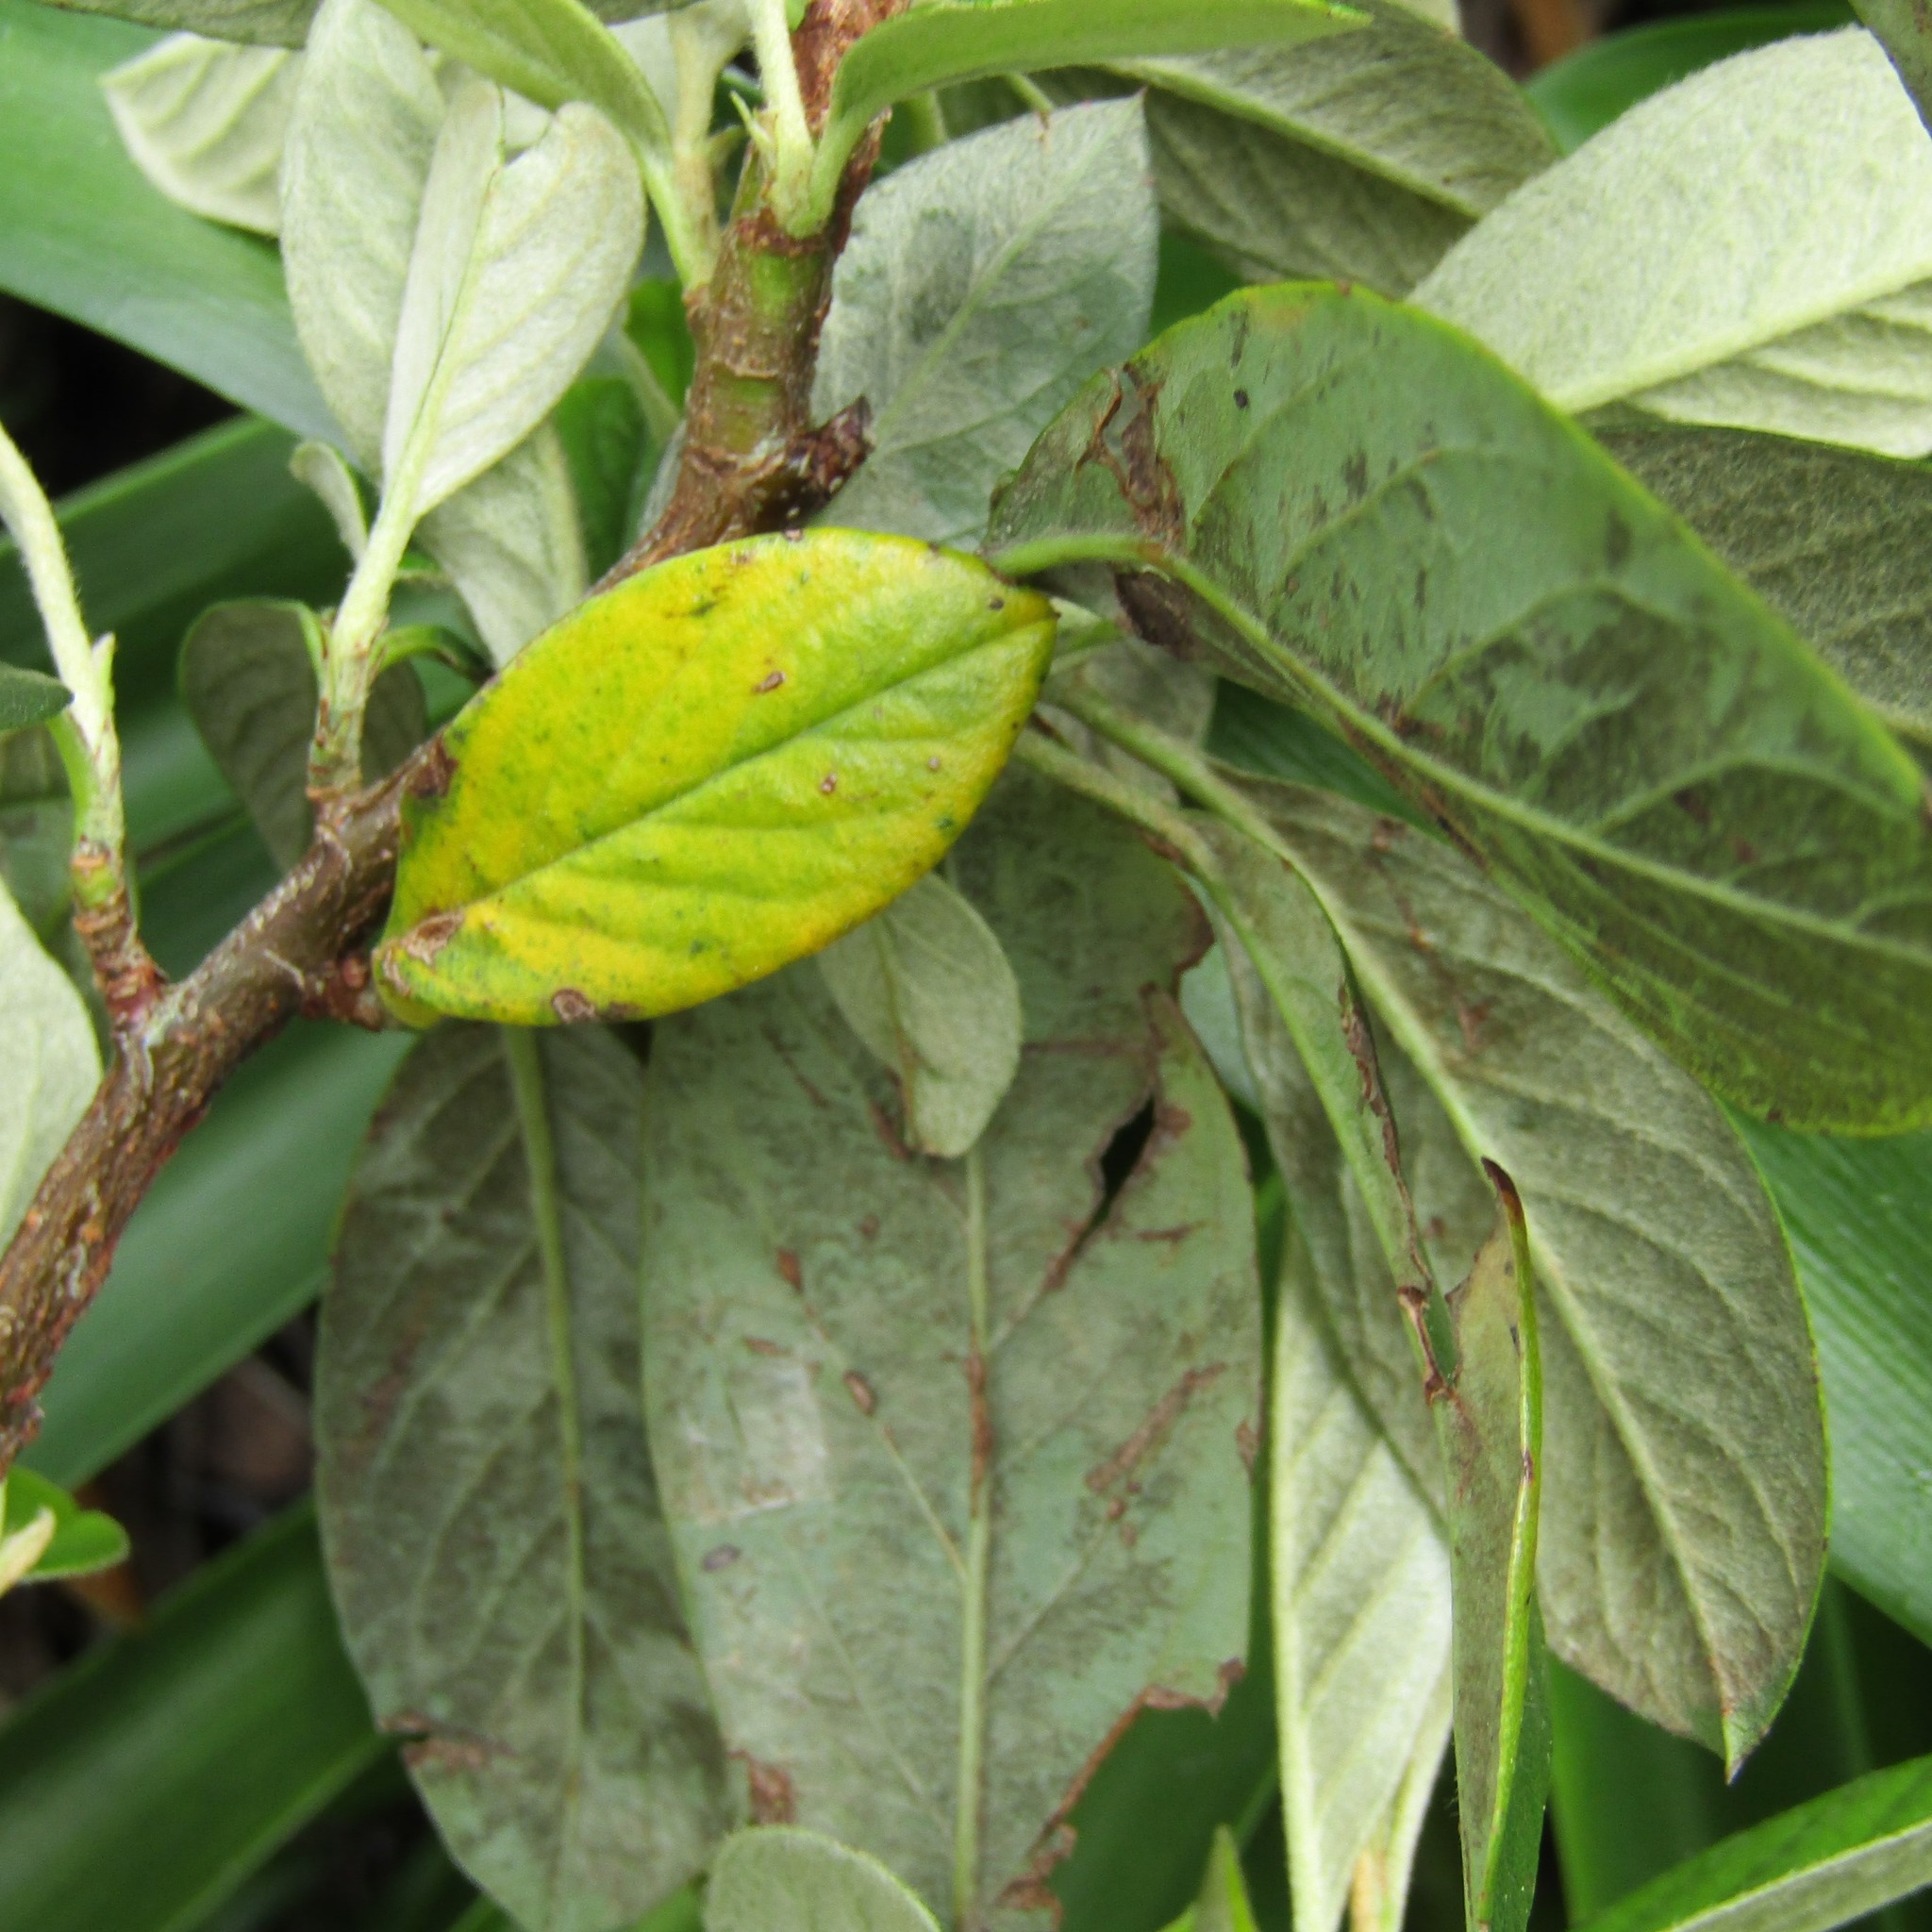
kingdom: Plantae
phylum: Tracheophyta
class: Magnoliopsida
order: Rosales
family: Rosaceae
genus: Cotoneaster
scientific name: Cotoneaster coriaceus
